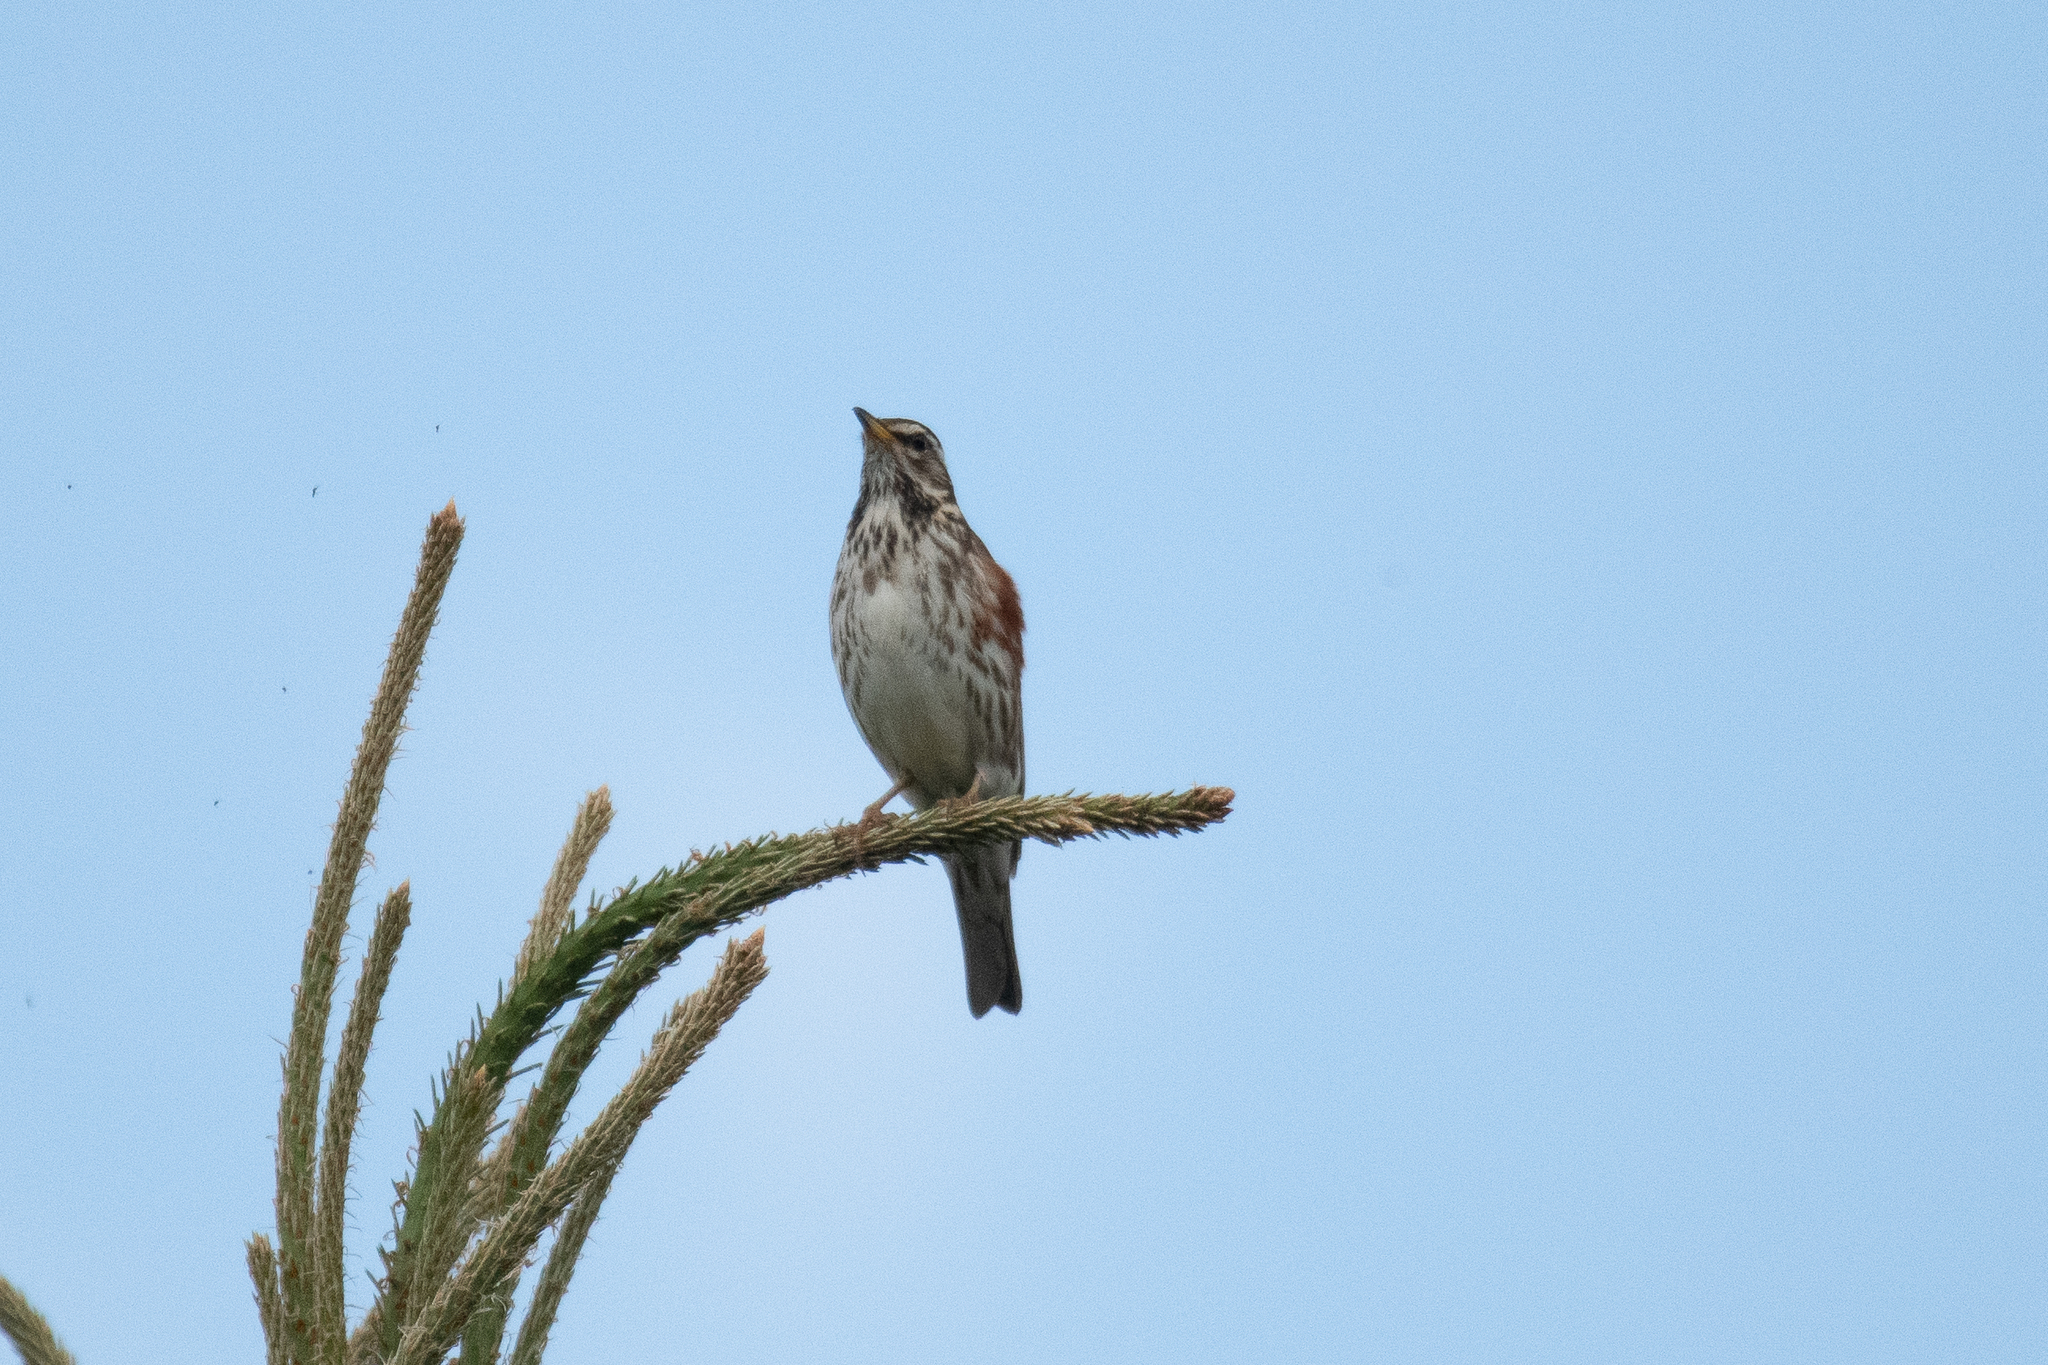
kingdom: Animalia
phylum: Chordata
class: Aves
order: Passeriformes
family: Turdidae
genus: Turdus
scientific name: Turdus iliacus
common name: Redwing
